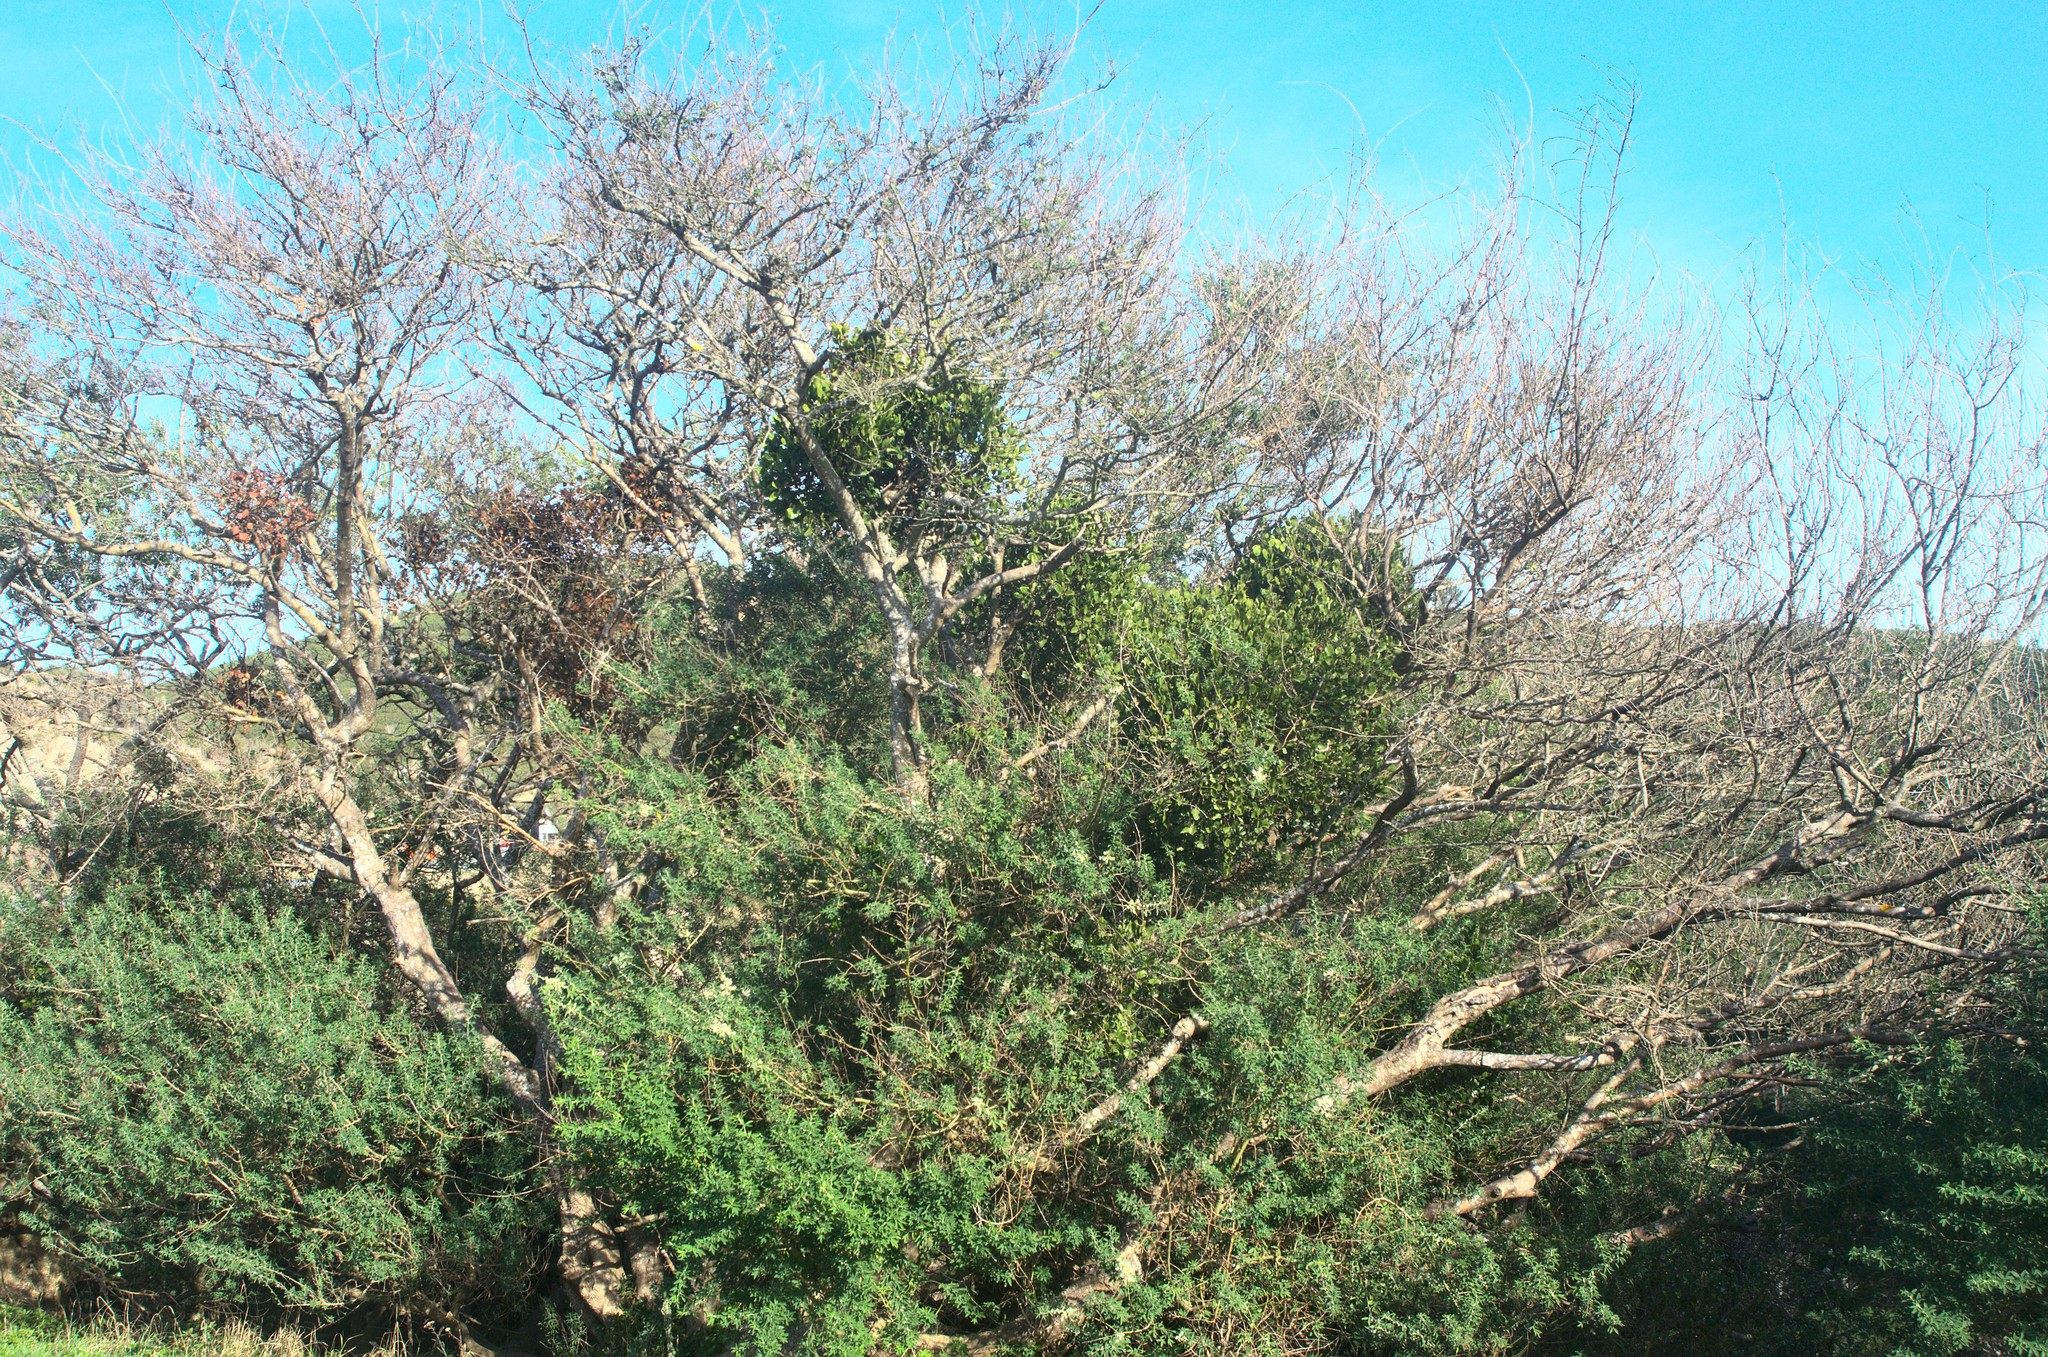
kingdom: Plantae
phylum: Tracheophyta
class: Magnoliopsida
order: Santalales
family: Loranthaceae
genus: Ileostylus
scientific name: Ileostylus micranthus
